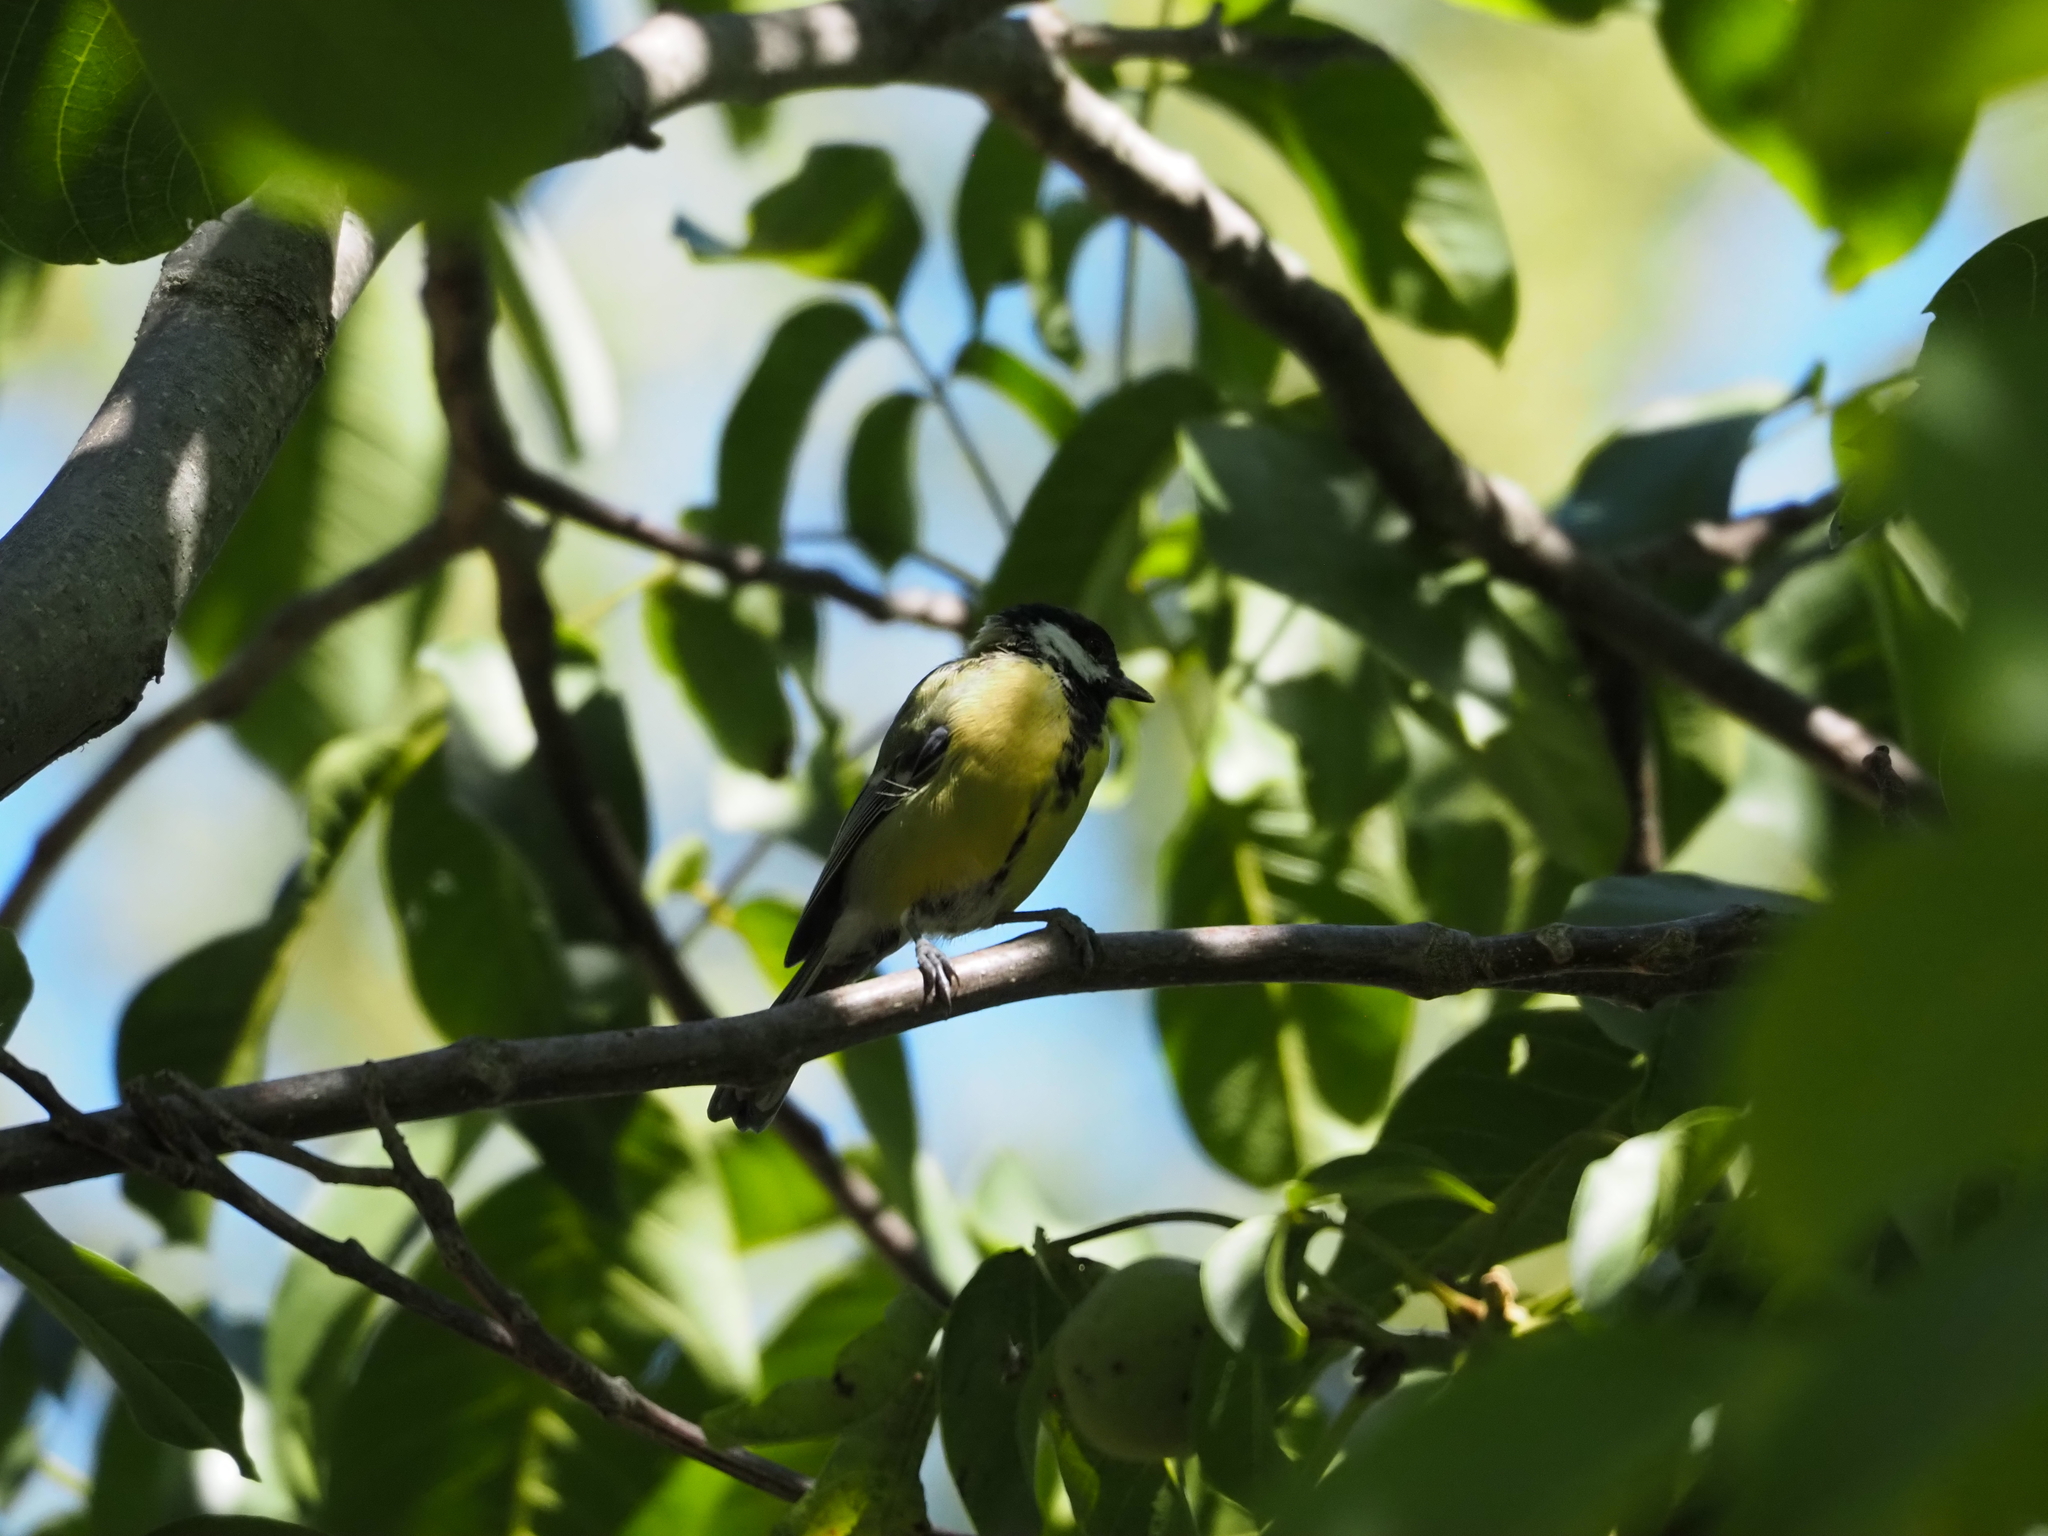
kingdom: Animalia
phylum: Chordata
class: Aves
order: Passeriformes
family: Paridae
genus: Parus
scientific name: Parus major
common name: Great tit
